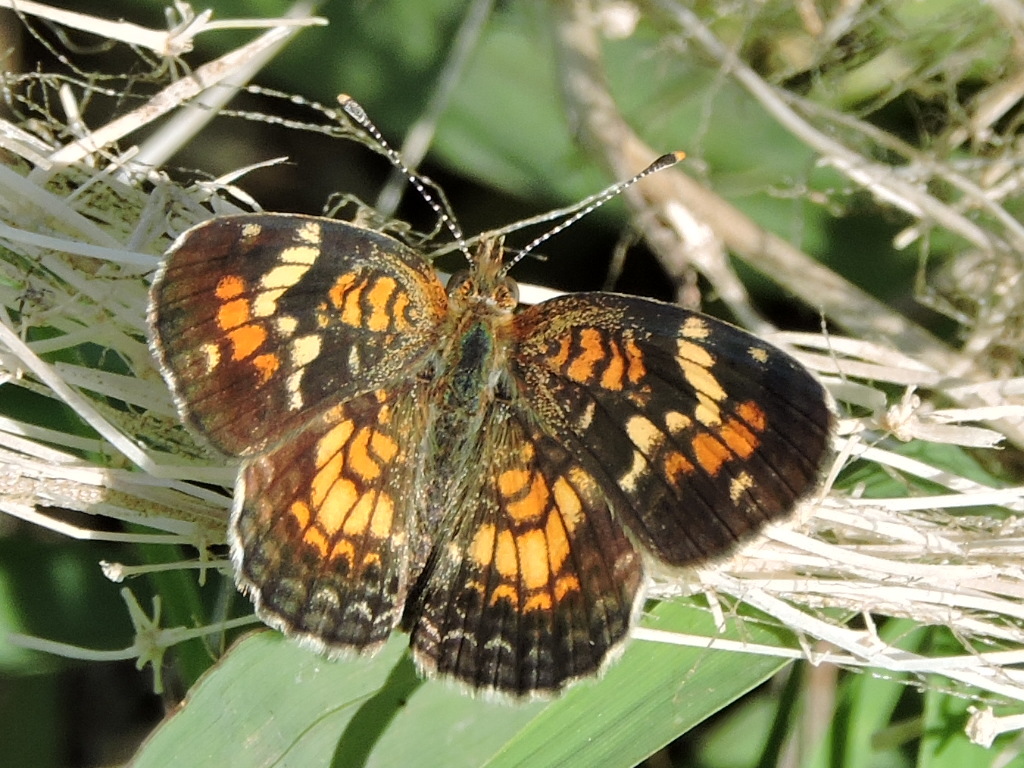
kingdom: Animalia
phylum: Arthropoda
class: Insecta
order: Lepidoptera
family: Nymphalidae
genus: Phyciodes
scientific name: Phyciodes phaon
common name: Phaon crescent
